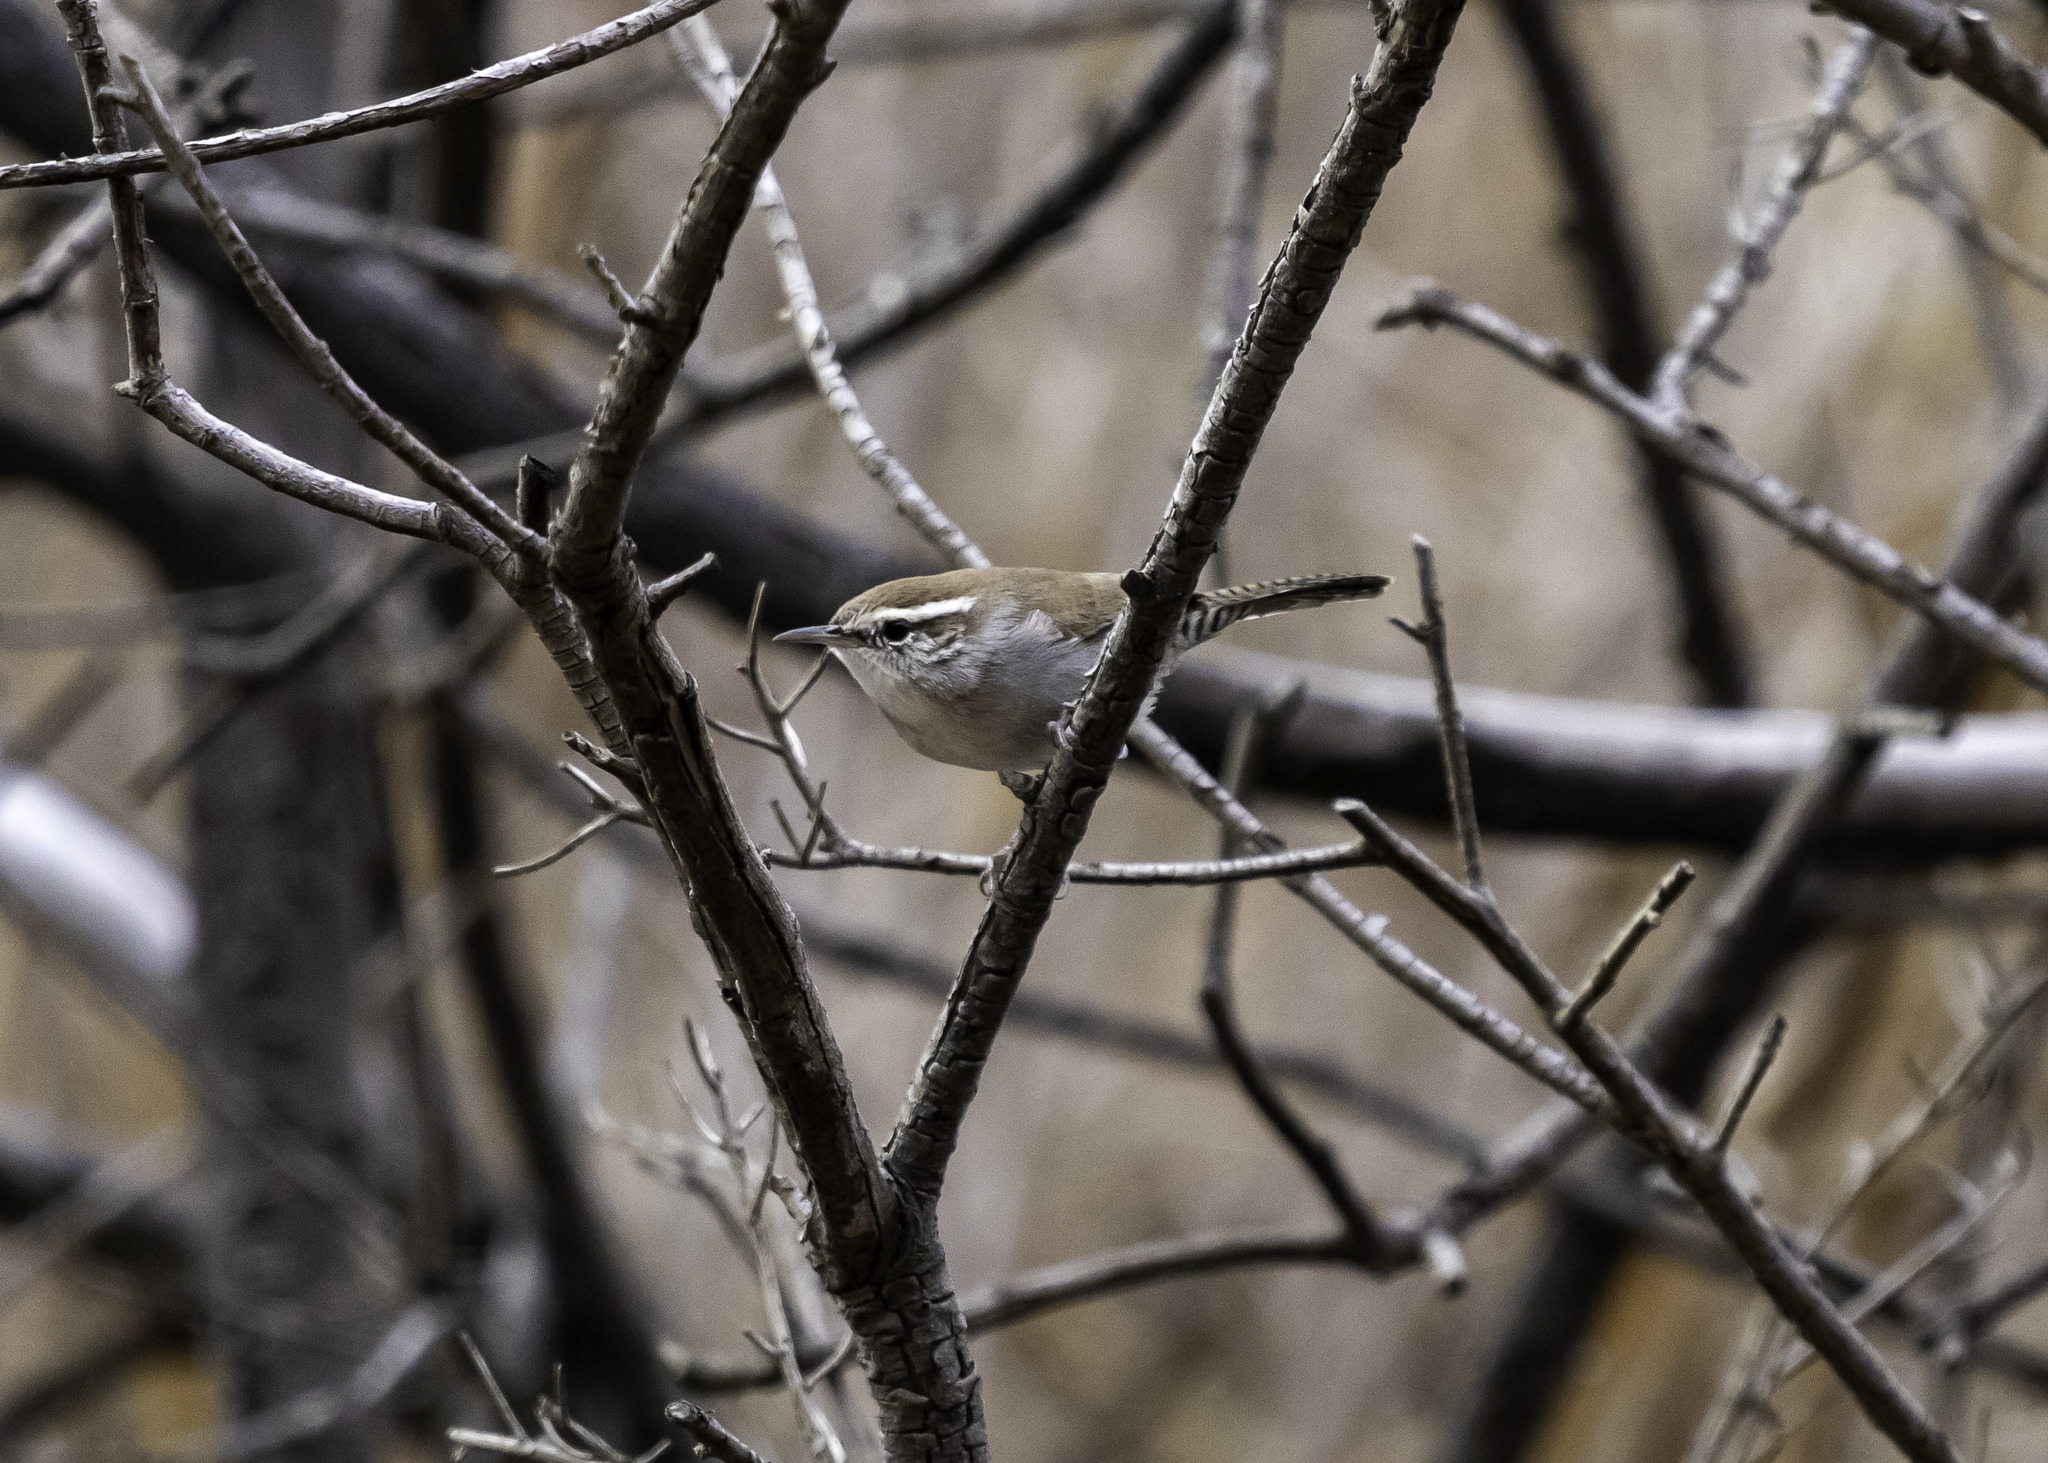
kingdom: Animalia
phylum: Chordata
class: Aves
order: Passeriformes
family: Troglodytidae
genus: Thryomanes
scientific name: Thryomanes bewickii
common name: Bewick's wren
